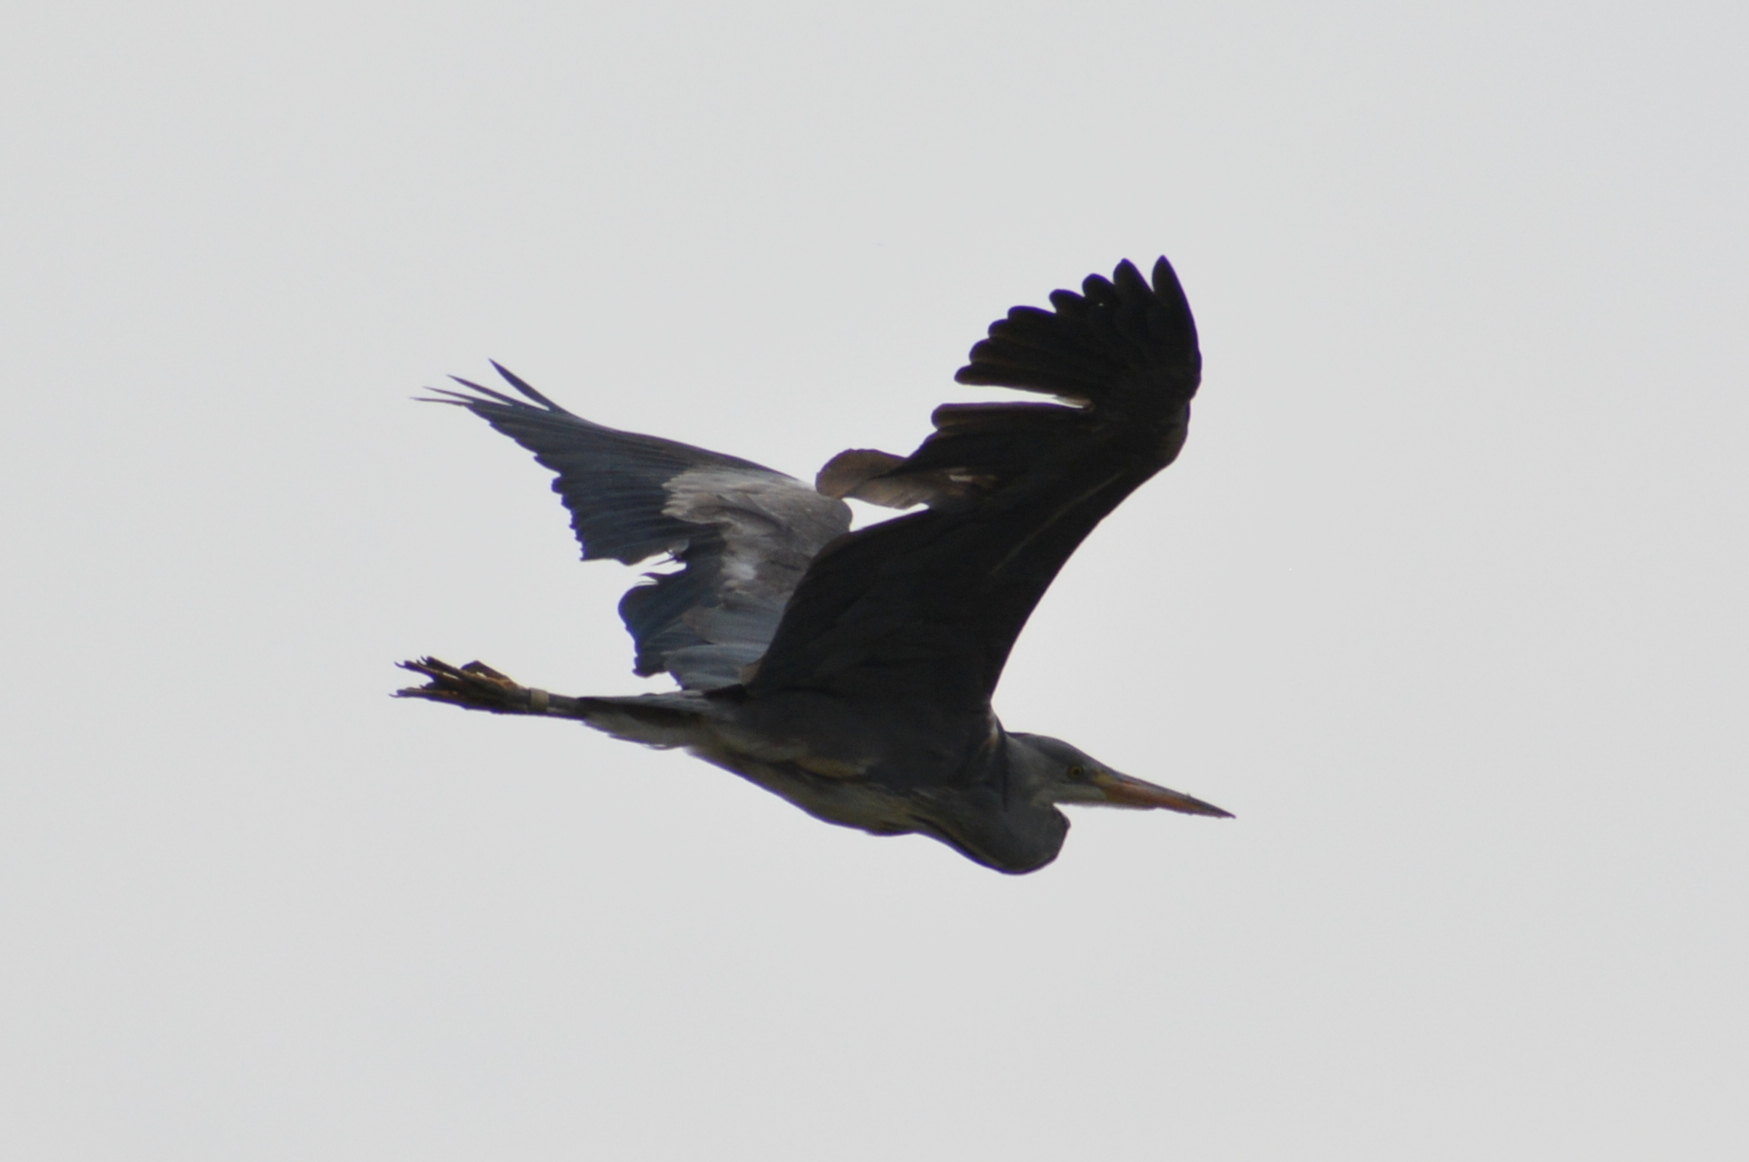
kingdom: Animalia
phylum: Chordata
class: Aves
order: Pelecaniformes
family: Ardeidae
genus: Ardea
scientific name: Ardea cinerea
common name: Grey heron
